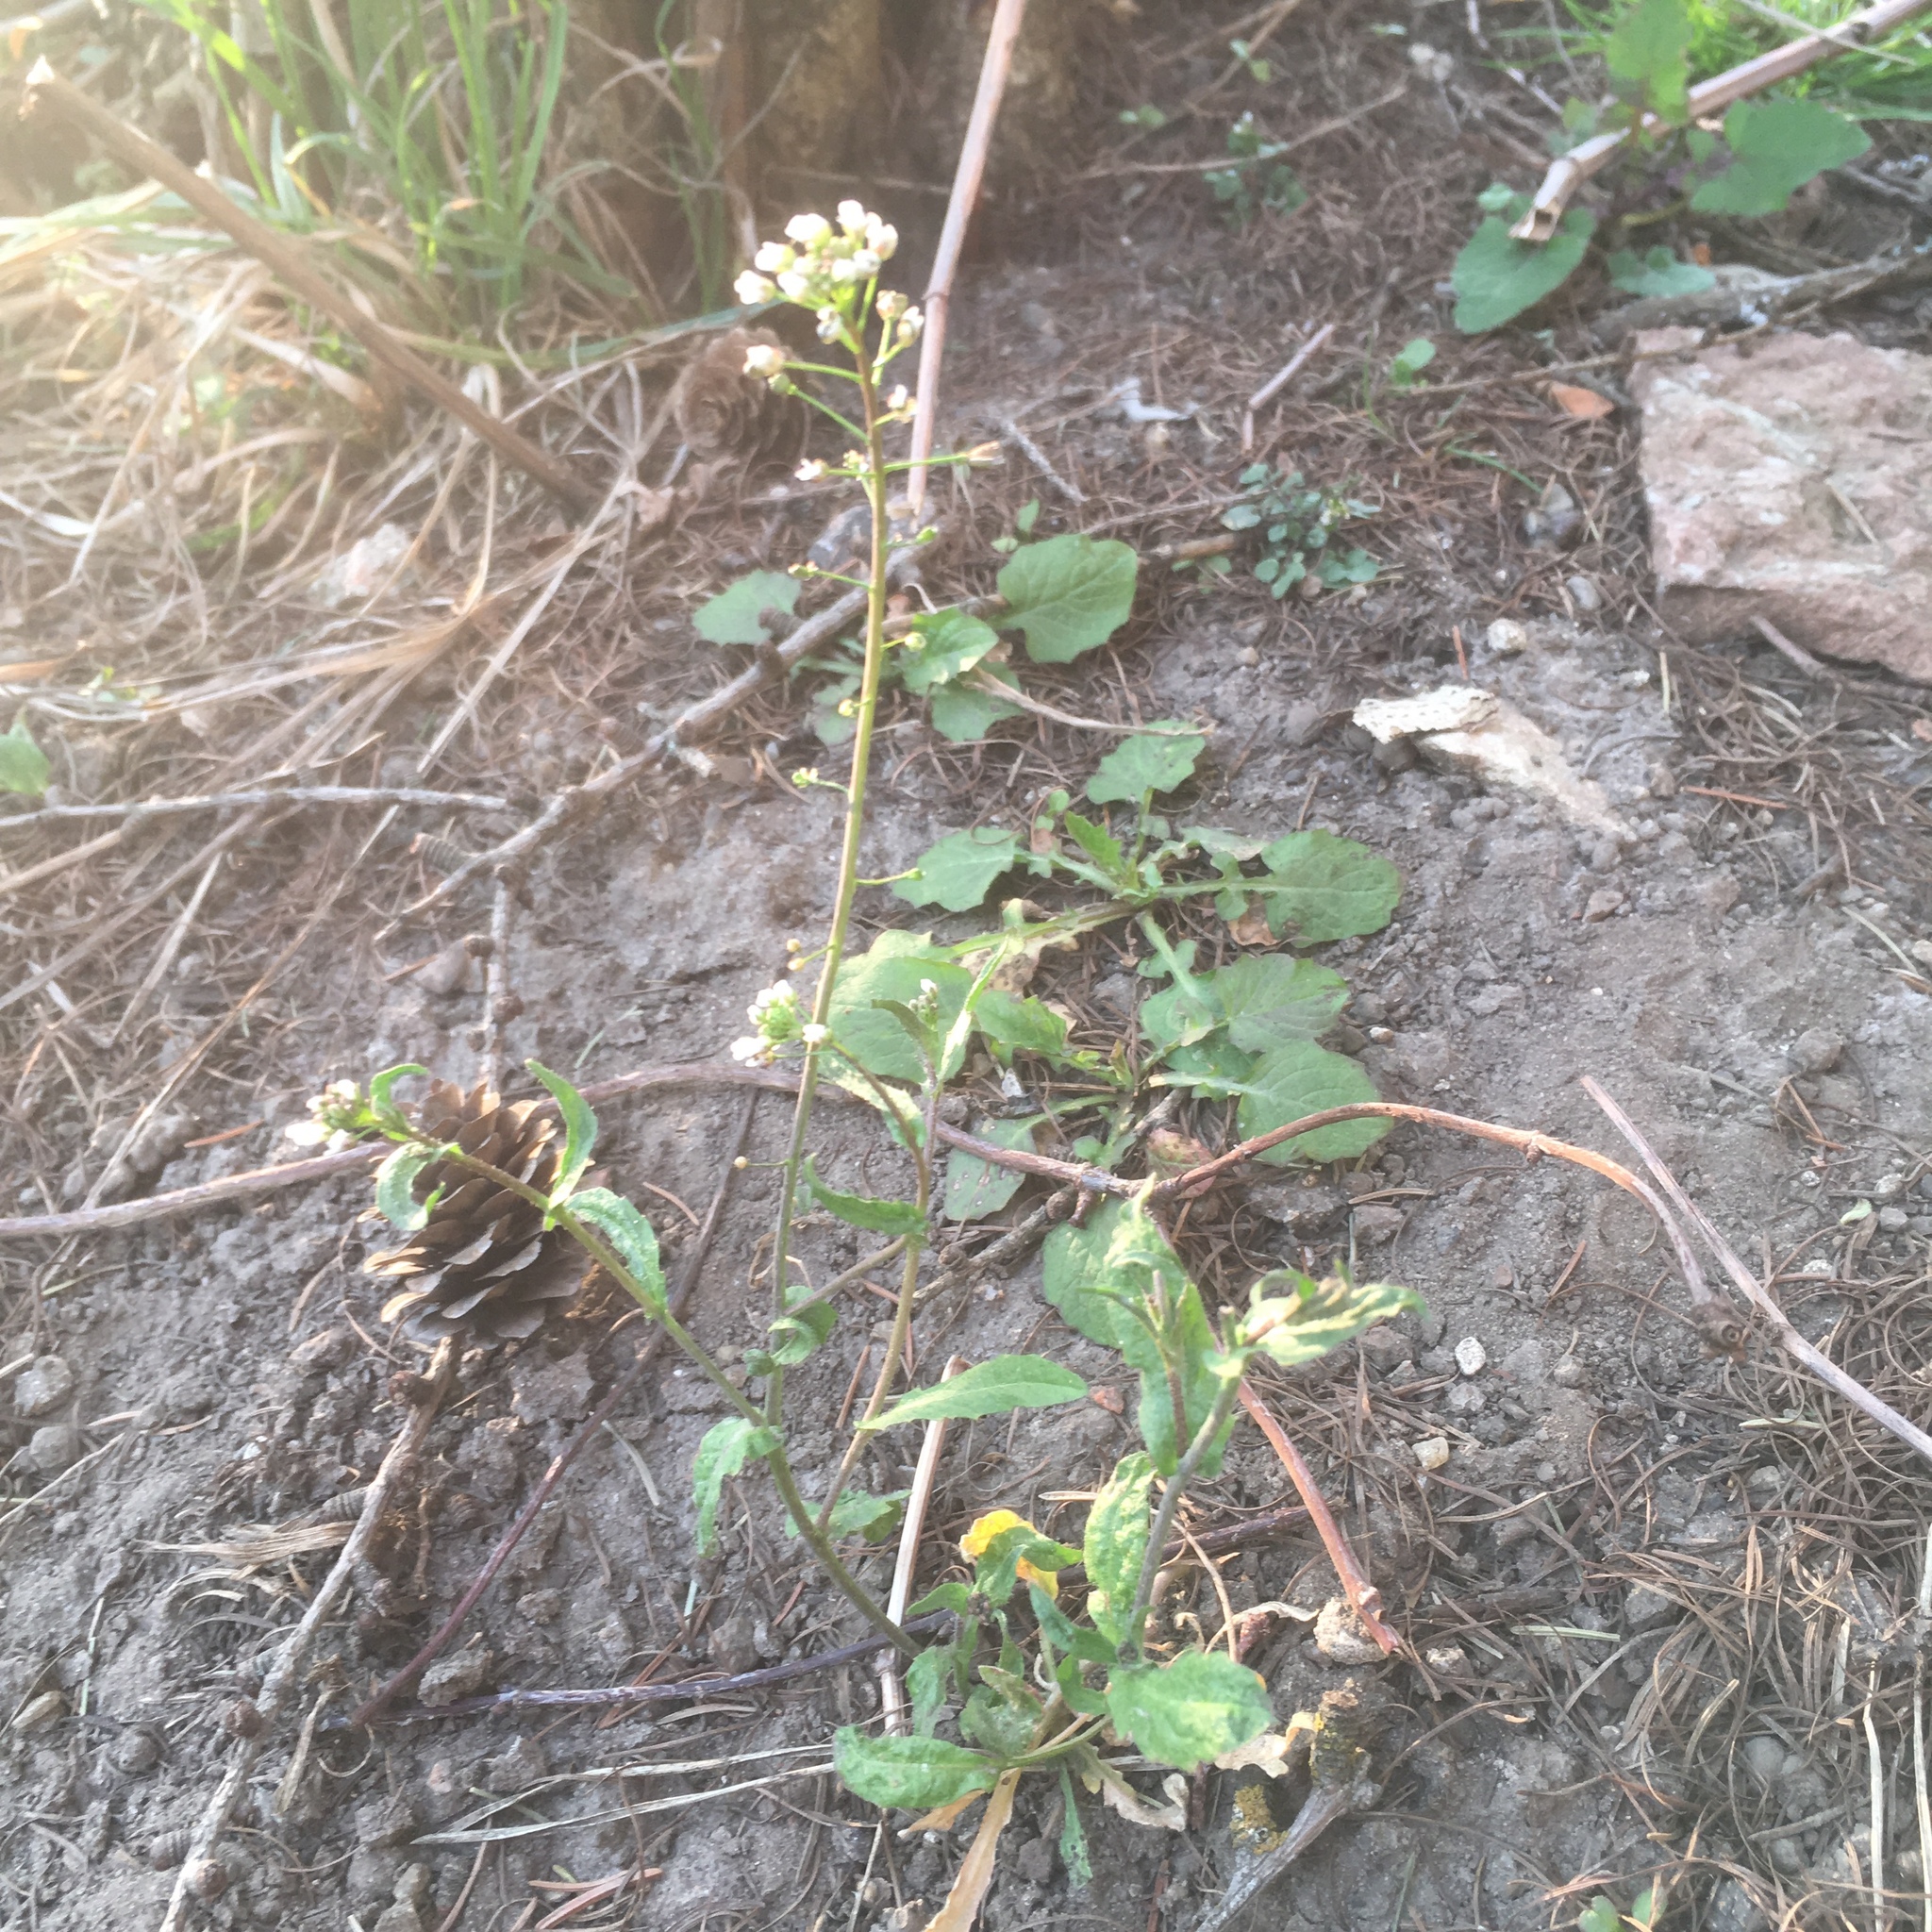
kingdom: Plantae
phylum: Tracheophyta
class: Magnoliopsida
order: Brassicales
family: Brassicaceae
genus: Capsella
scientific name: Capsella bursa-pastoris
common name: Shepherd's purse
